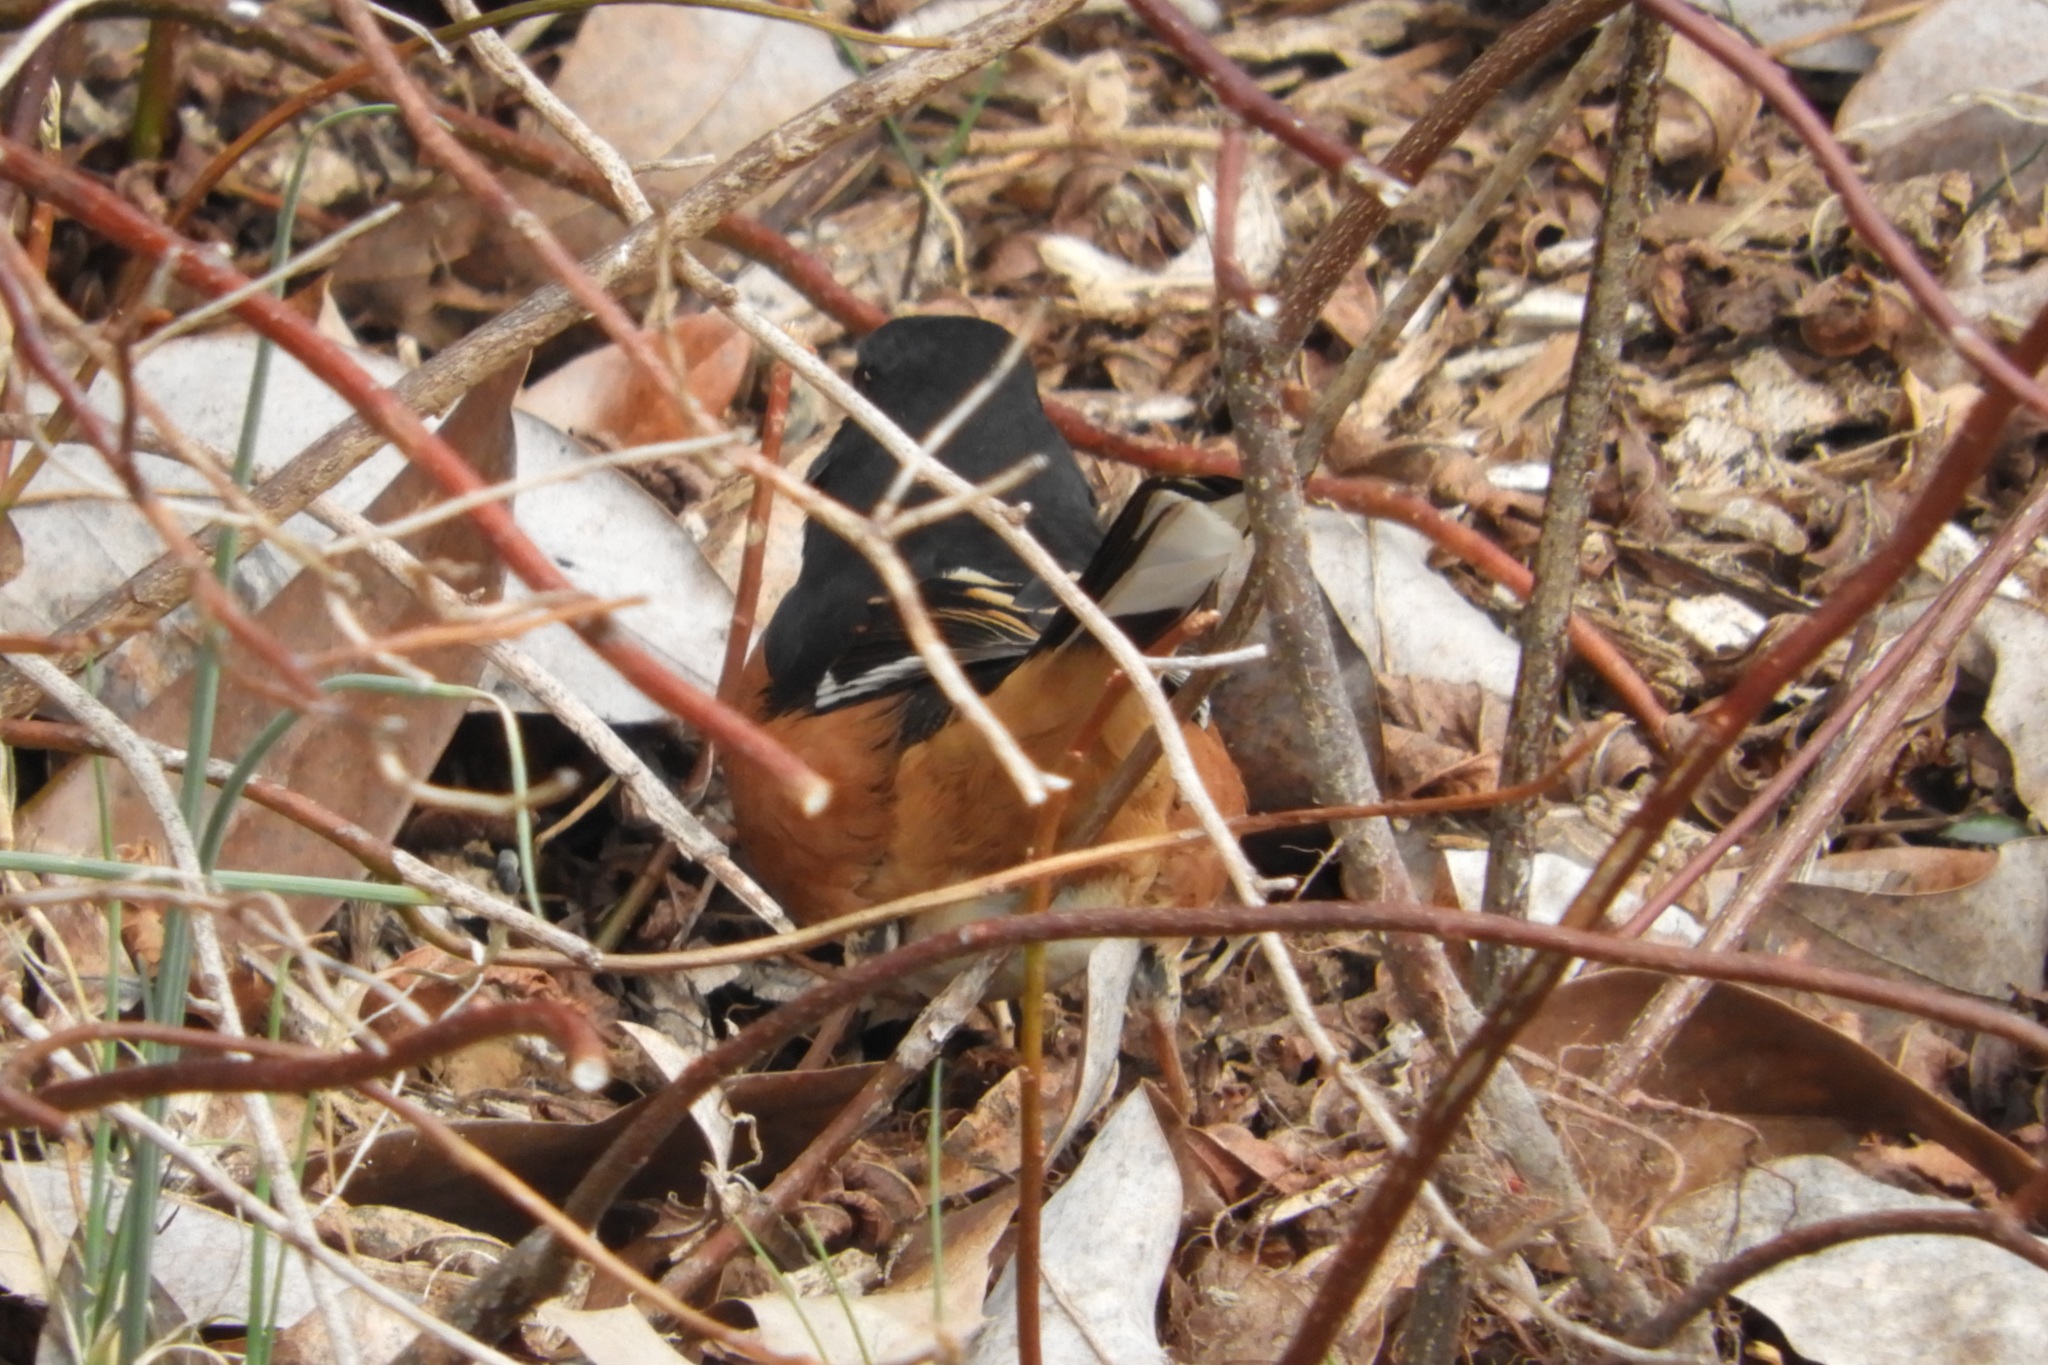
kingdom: Animalia
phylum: Chordata
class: Aves
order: Passeriformes
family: Passerellidae
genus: Pipilo
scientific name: Pipilo erythrophthalmus
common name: Eastern towhee
